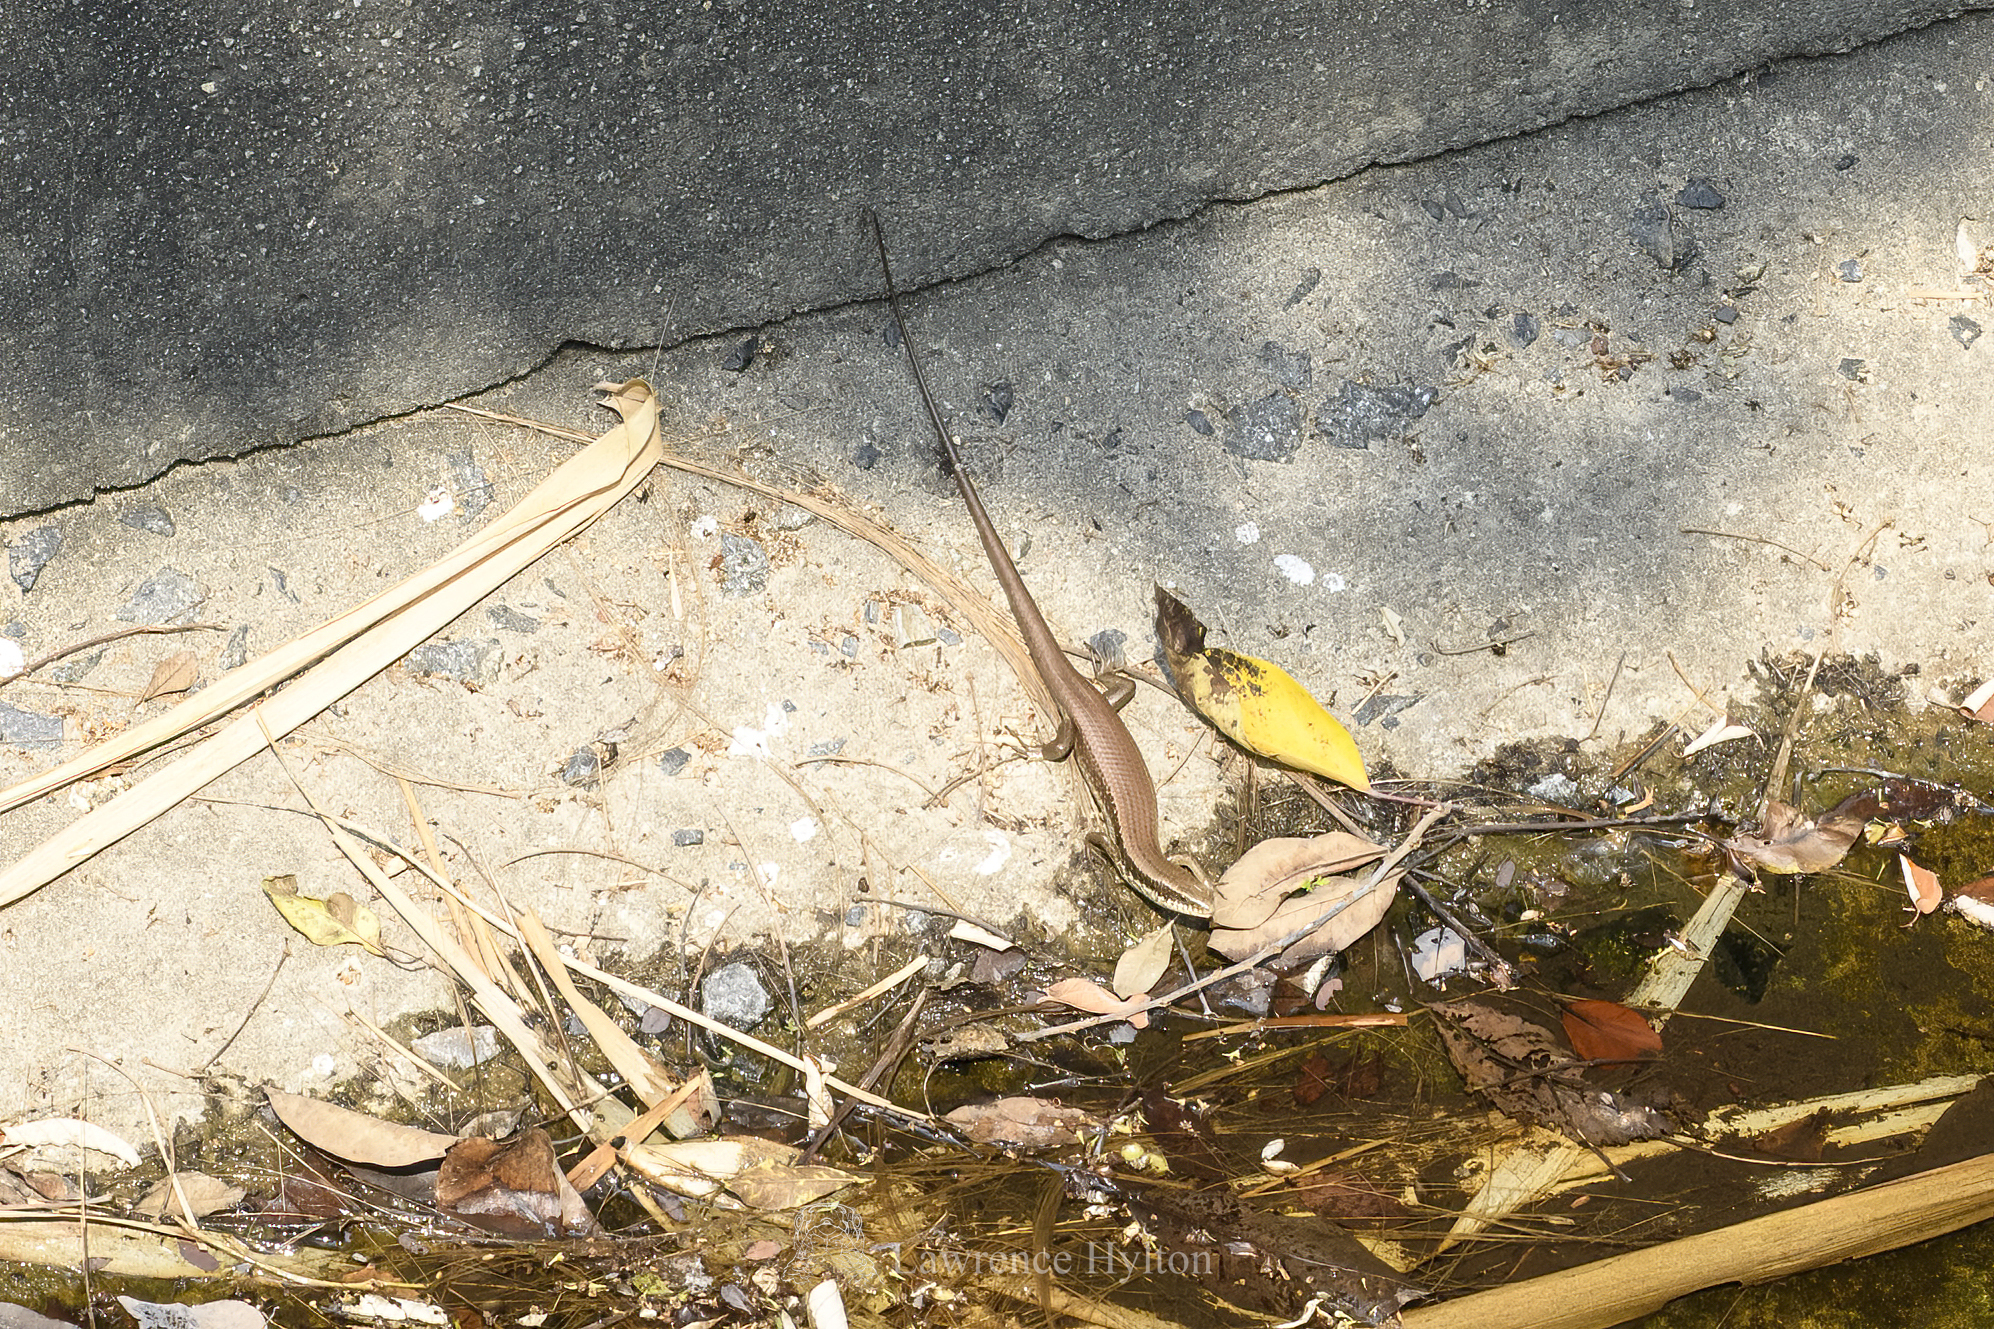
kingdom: Animalia
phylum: Chordata
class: Squamata
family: Scincidae
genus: Eutropis
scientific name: Eutropis longicaudata
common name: Long-tailed sun skink
